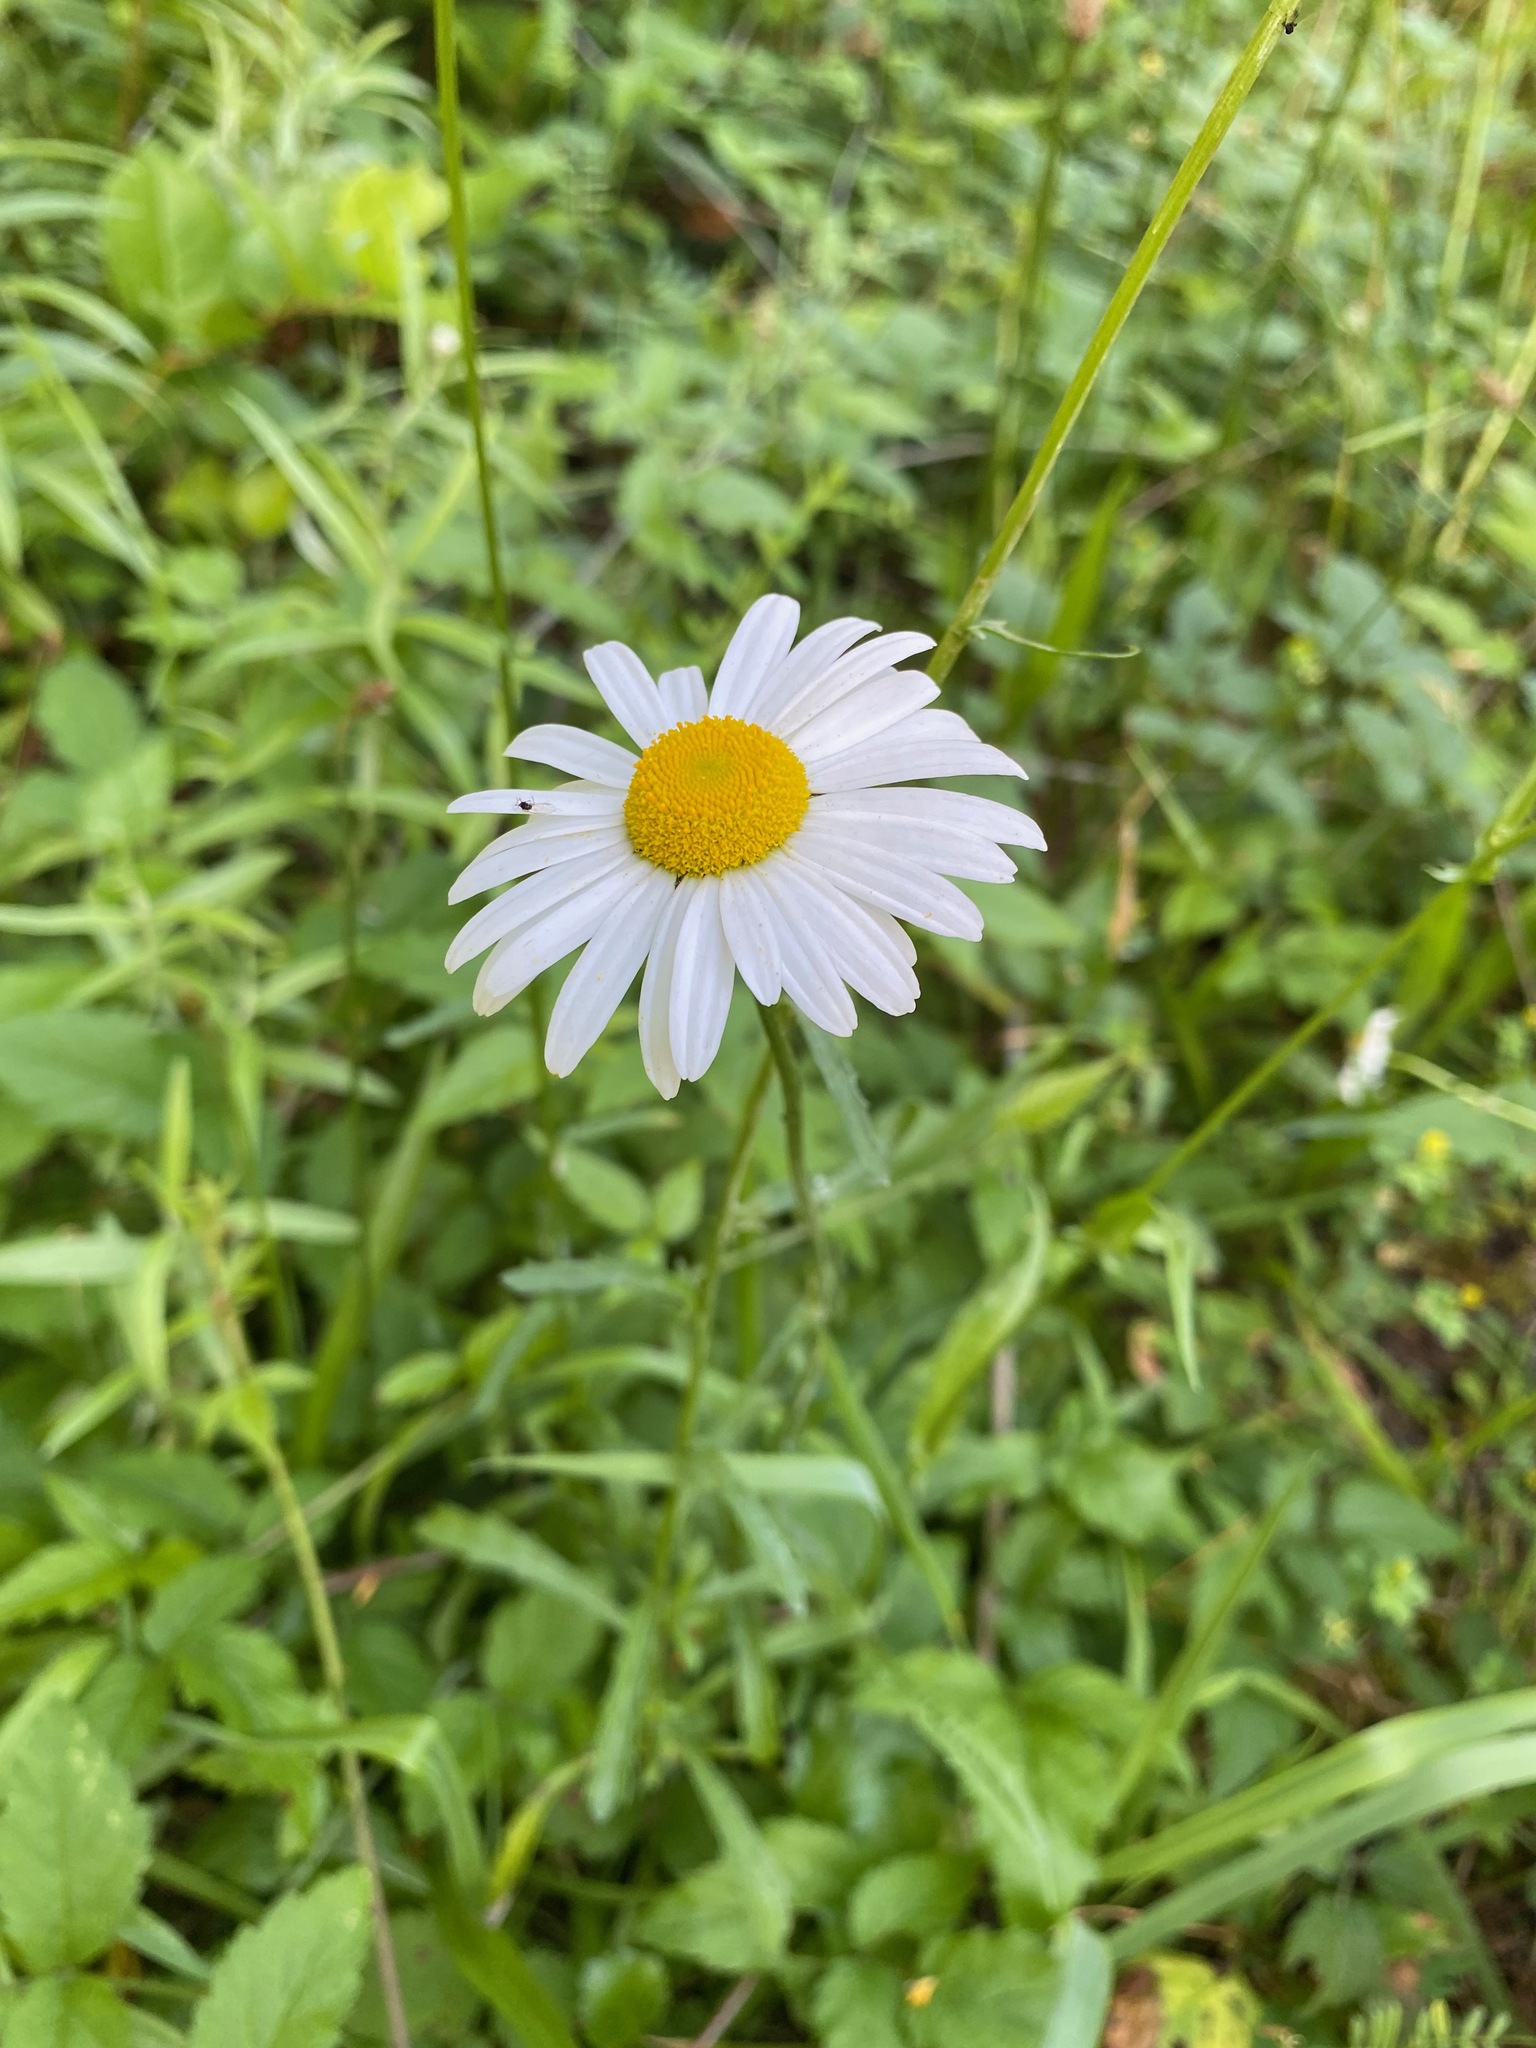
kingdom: Plantae
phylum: Tracheophyta
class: Magnoliopsida
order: Asterales
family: Asteraceae
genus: Leucanthemum
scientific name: Leucanthemum vulgare
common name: Oxeye daisy
